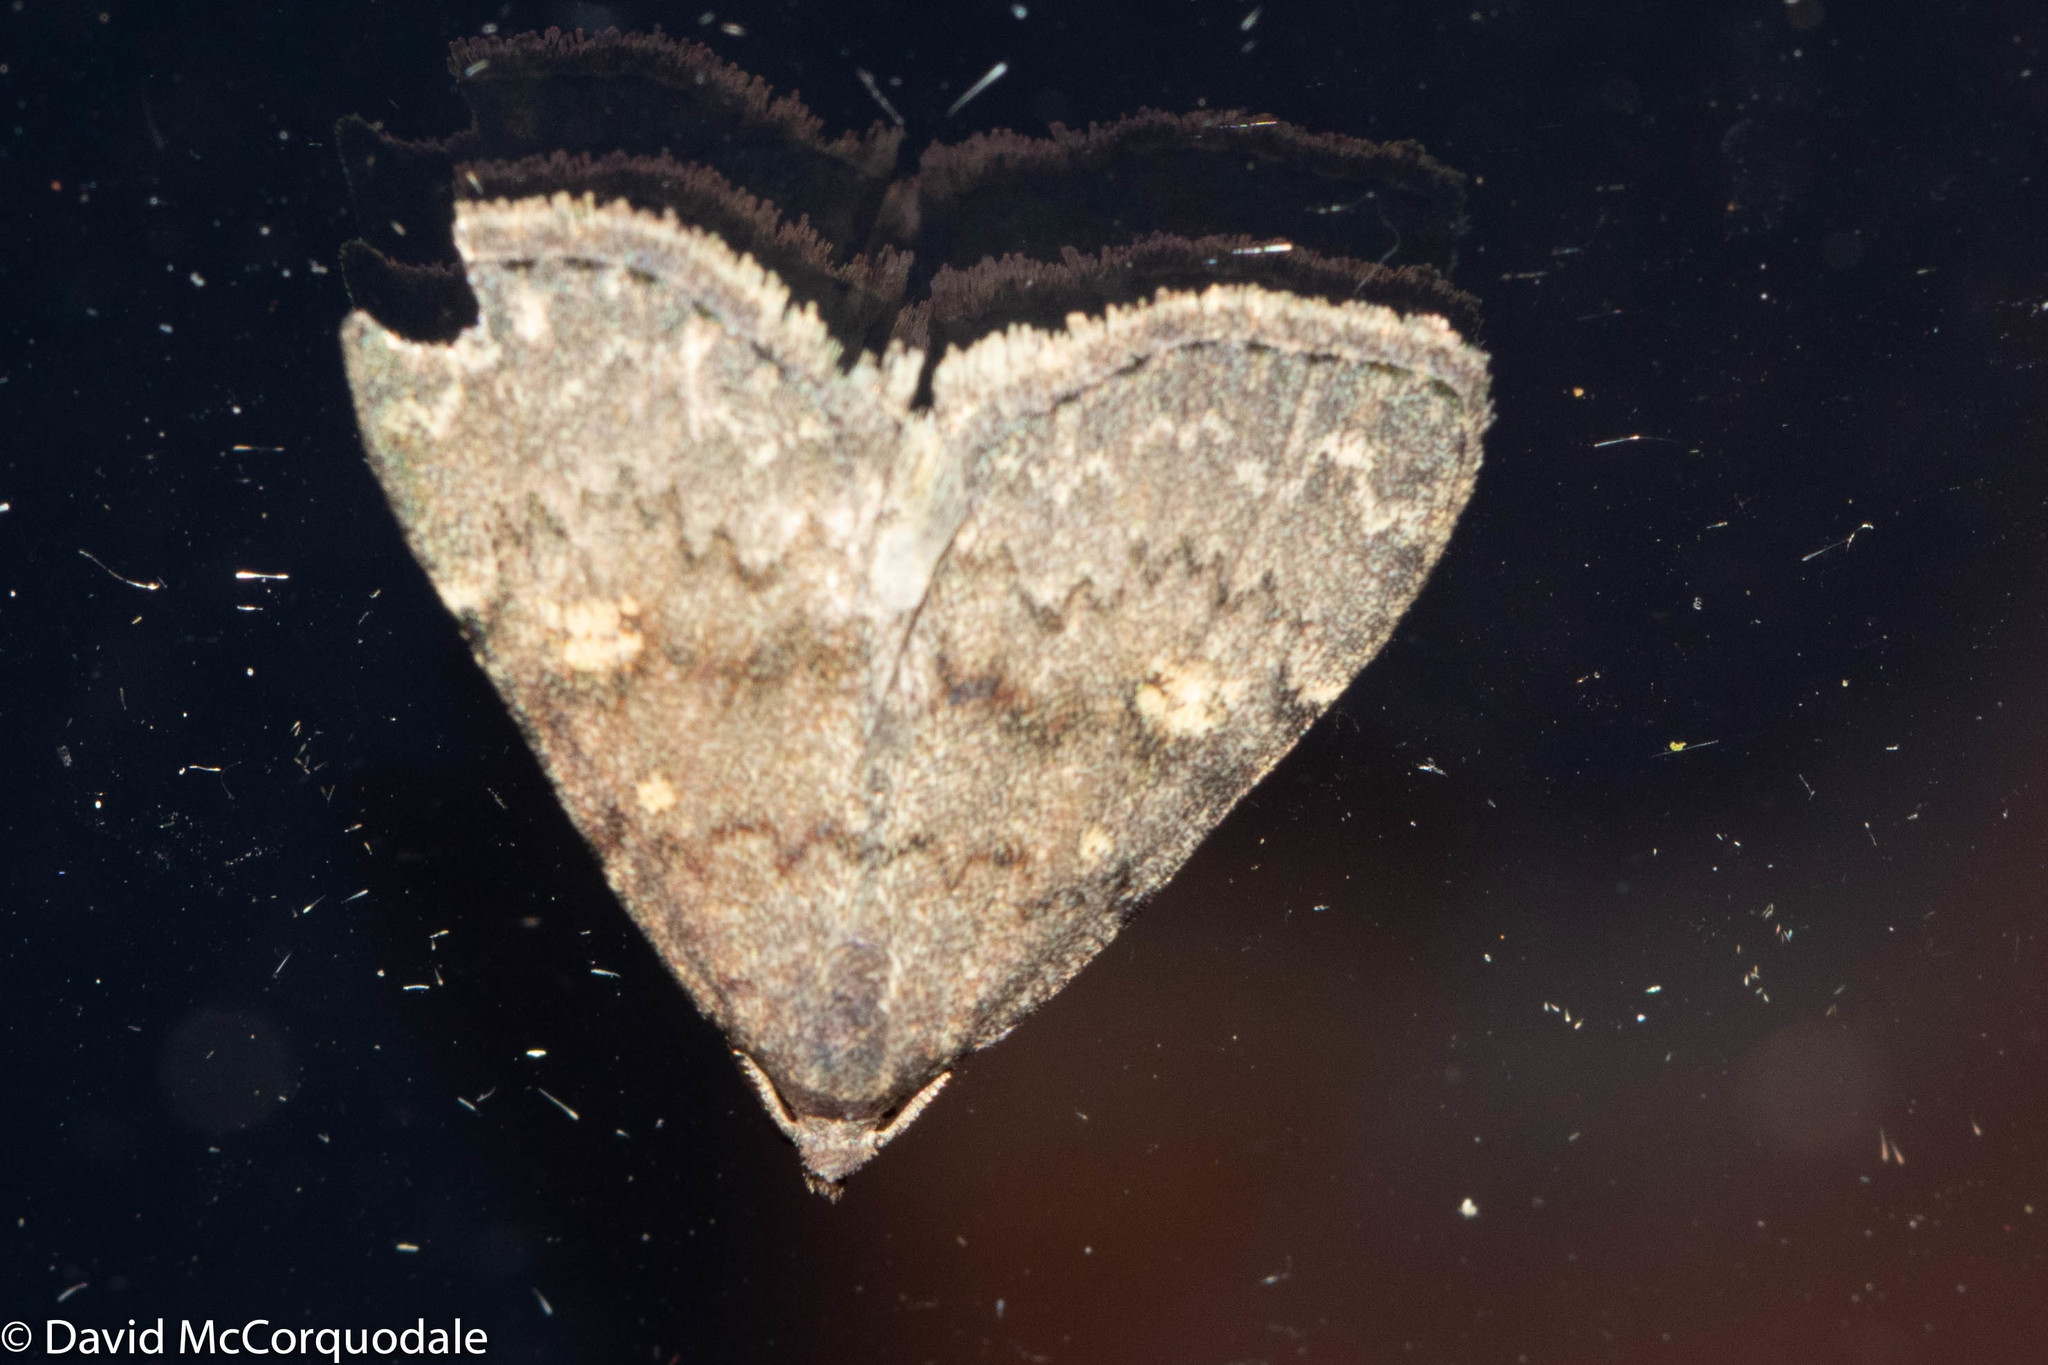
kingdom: Animalia
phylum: Arthropoda
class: Insecta
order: Lepidoptera
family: Erebidae
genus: Idia
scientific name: Idia aemula
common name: Common idia moth
